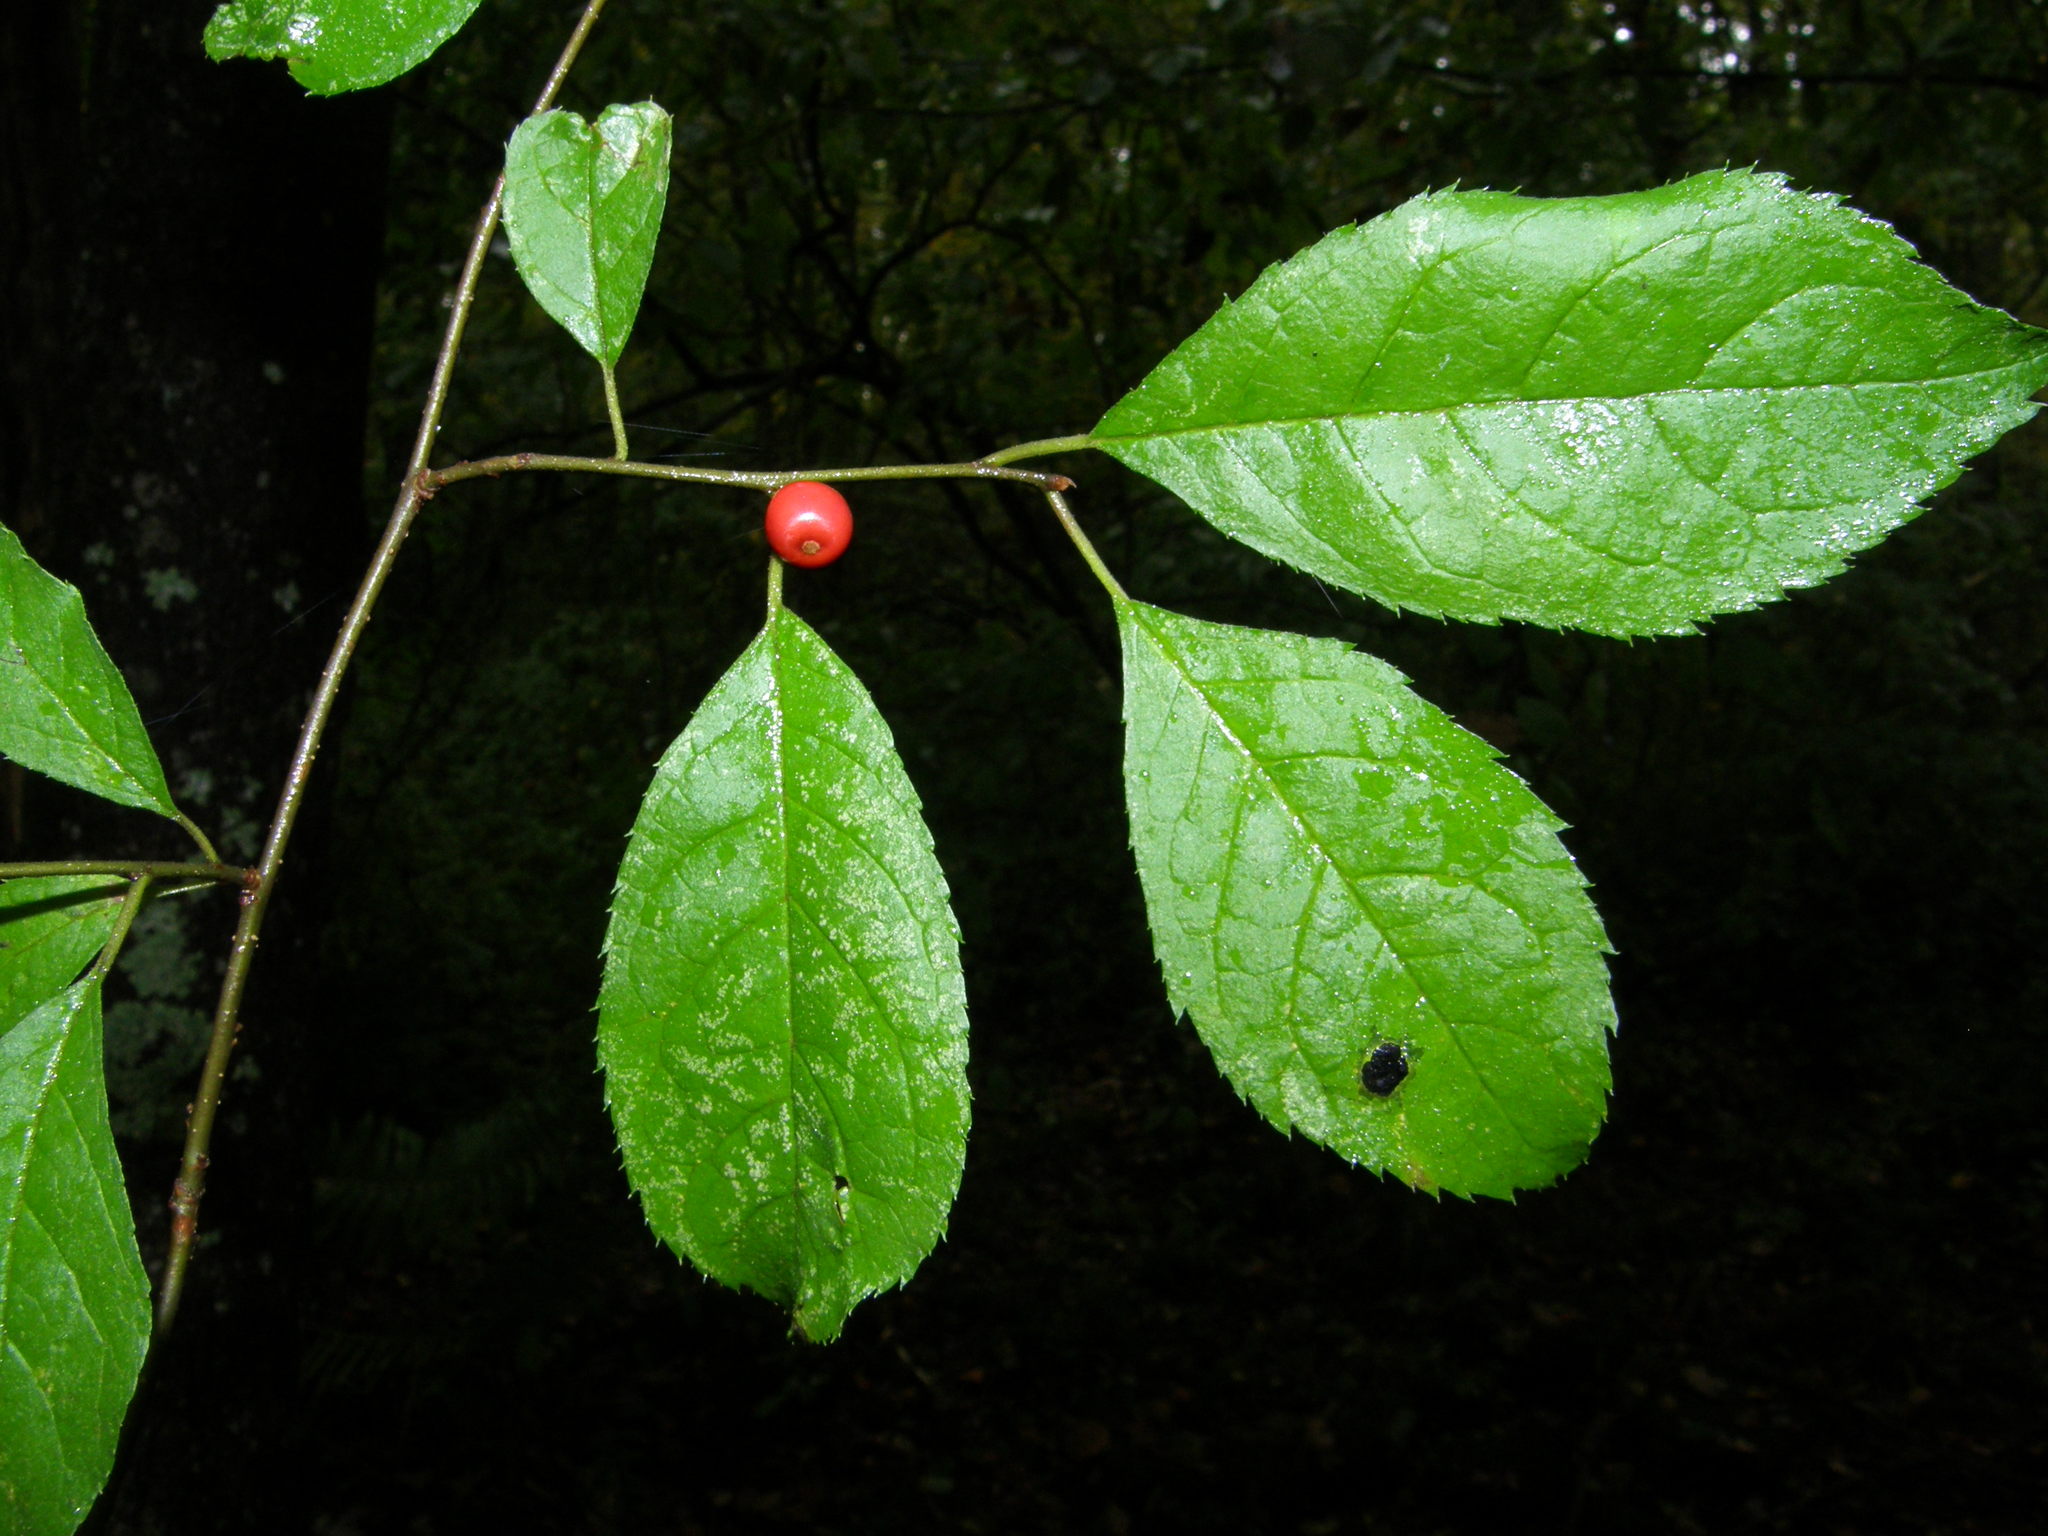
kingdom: Plantae
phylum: Tracheophyta
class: Magnoliopsida
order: Aquifoliales
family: Aquifoliaceae
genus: Ilex
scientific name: Ilex verticillata
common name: Virginia winterberry
